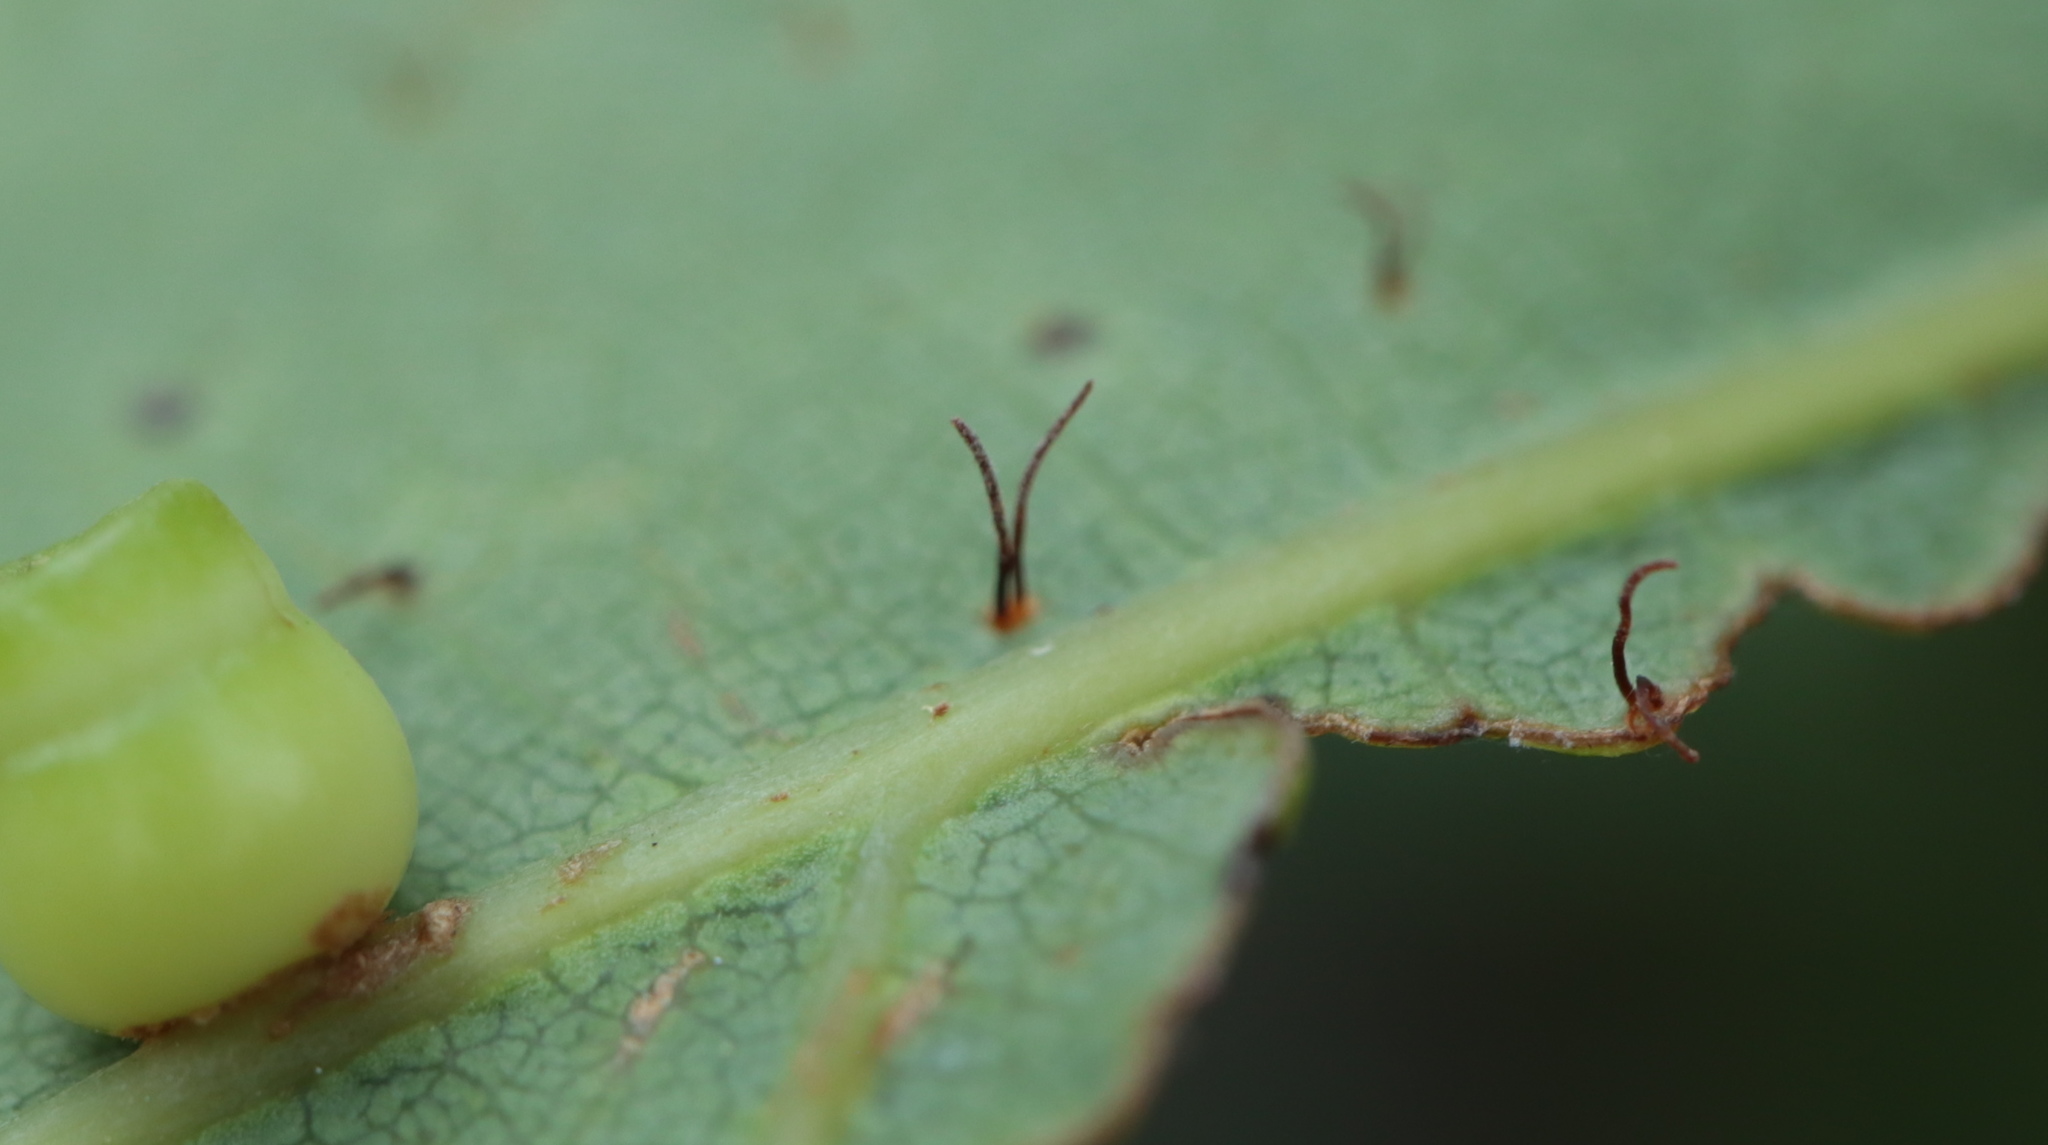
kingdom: Fungi
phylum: Basidiomycota
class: Pucciniomycetes
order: Pucciniales
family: Cronartiaceae
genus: Cronartium
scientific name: Cronartium quercuum
